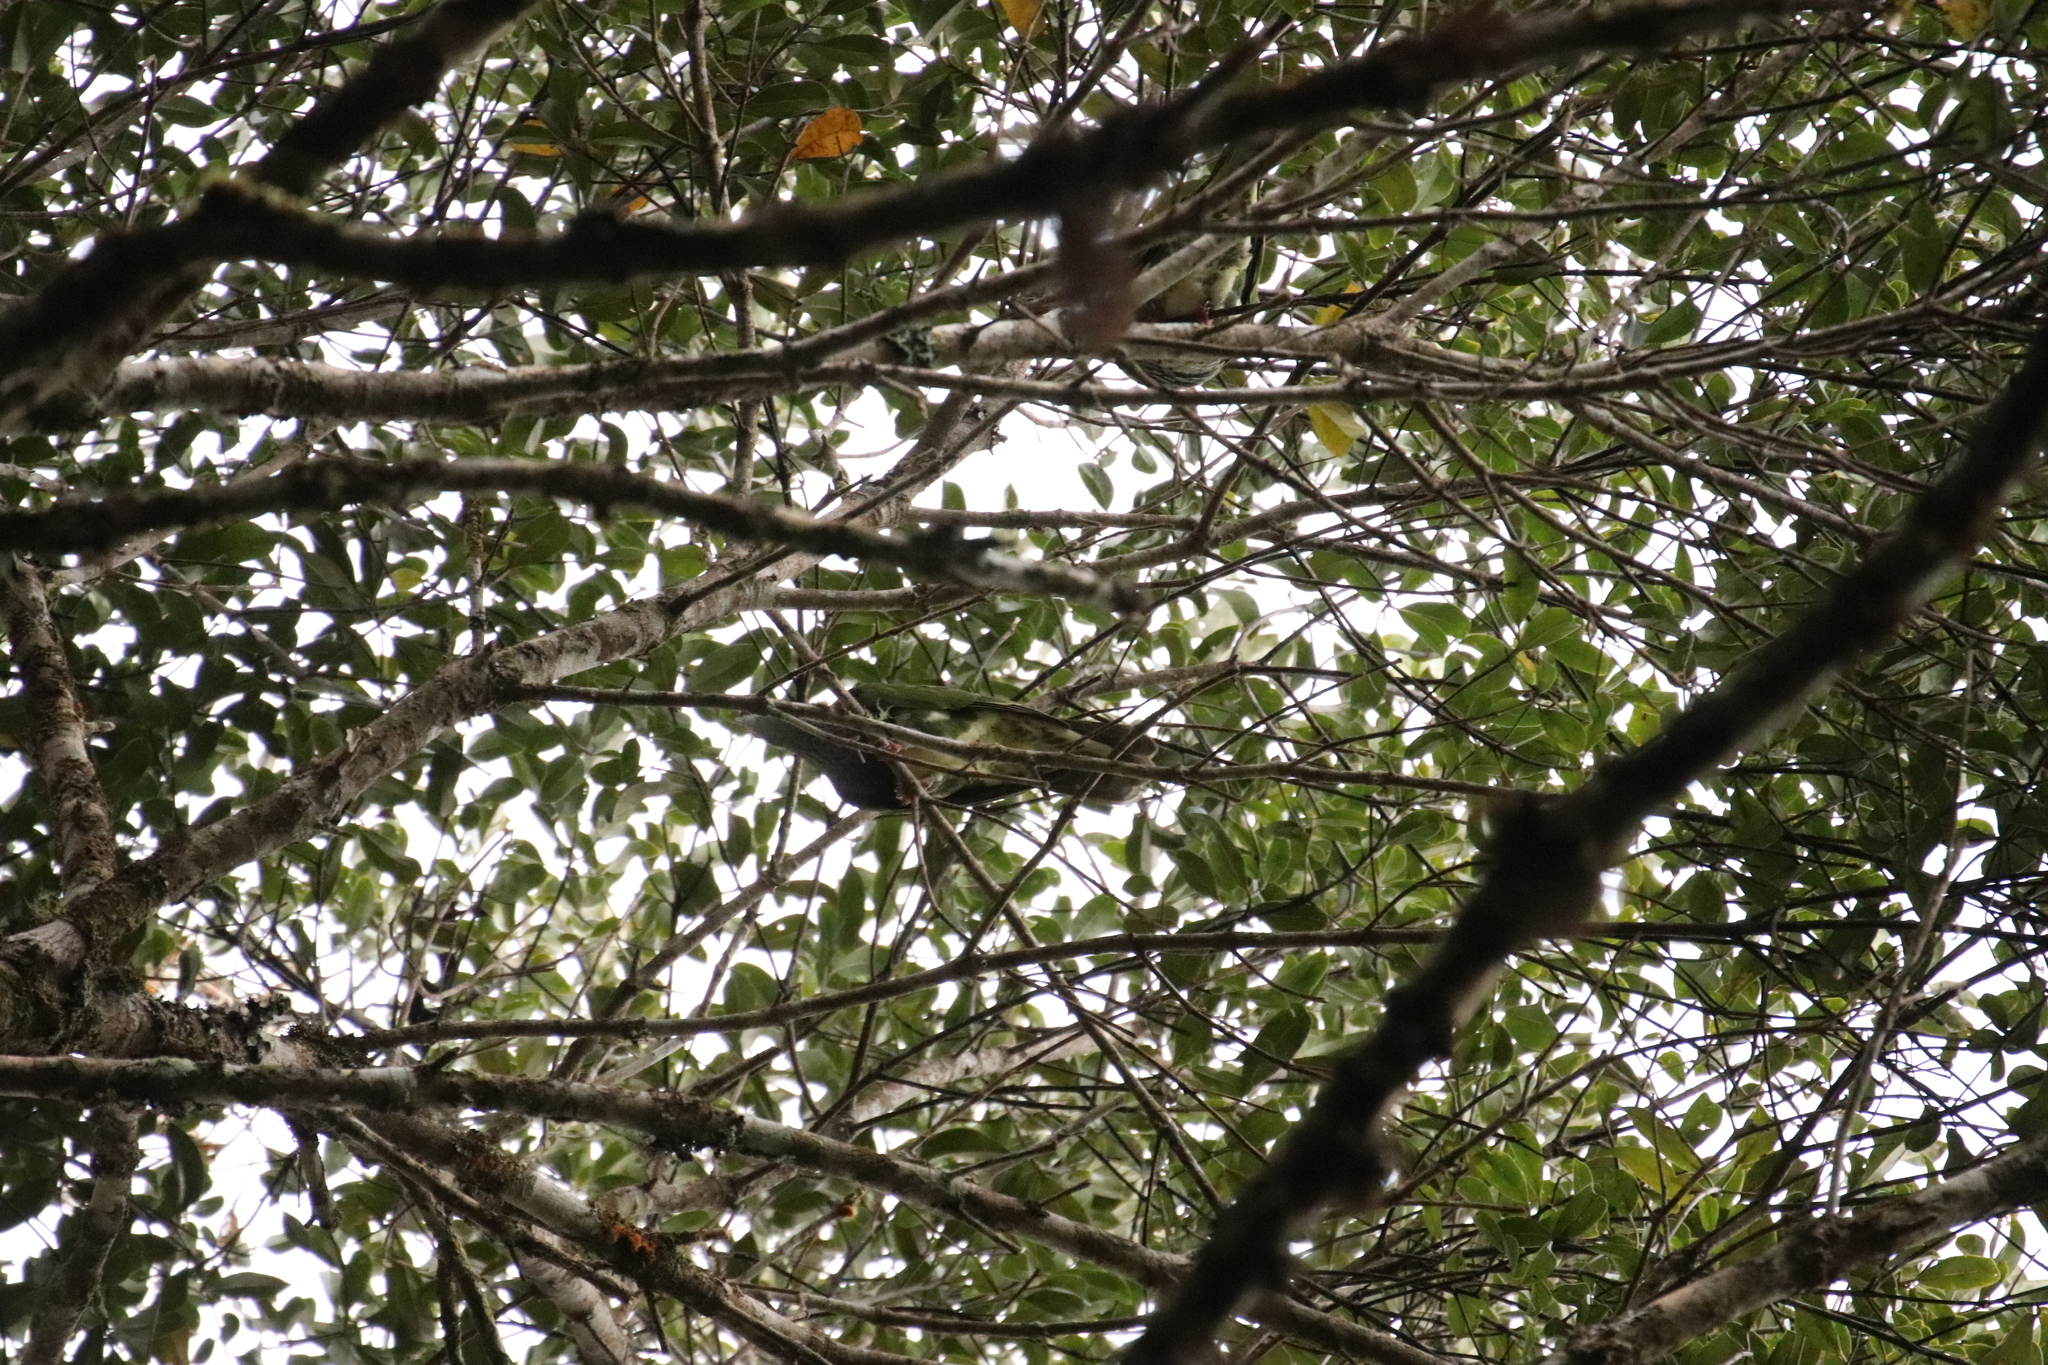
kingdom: Animalia
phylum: Chordata
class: Aves
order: Columbiformes
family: Columbidae
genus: Ptilinopus
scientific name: Ptilinopus superbus
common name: Superb fruit dove
